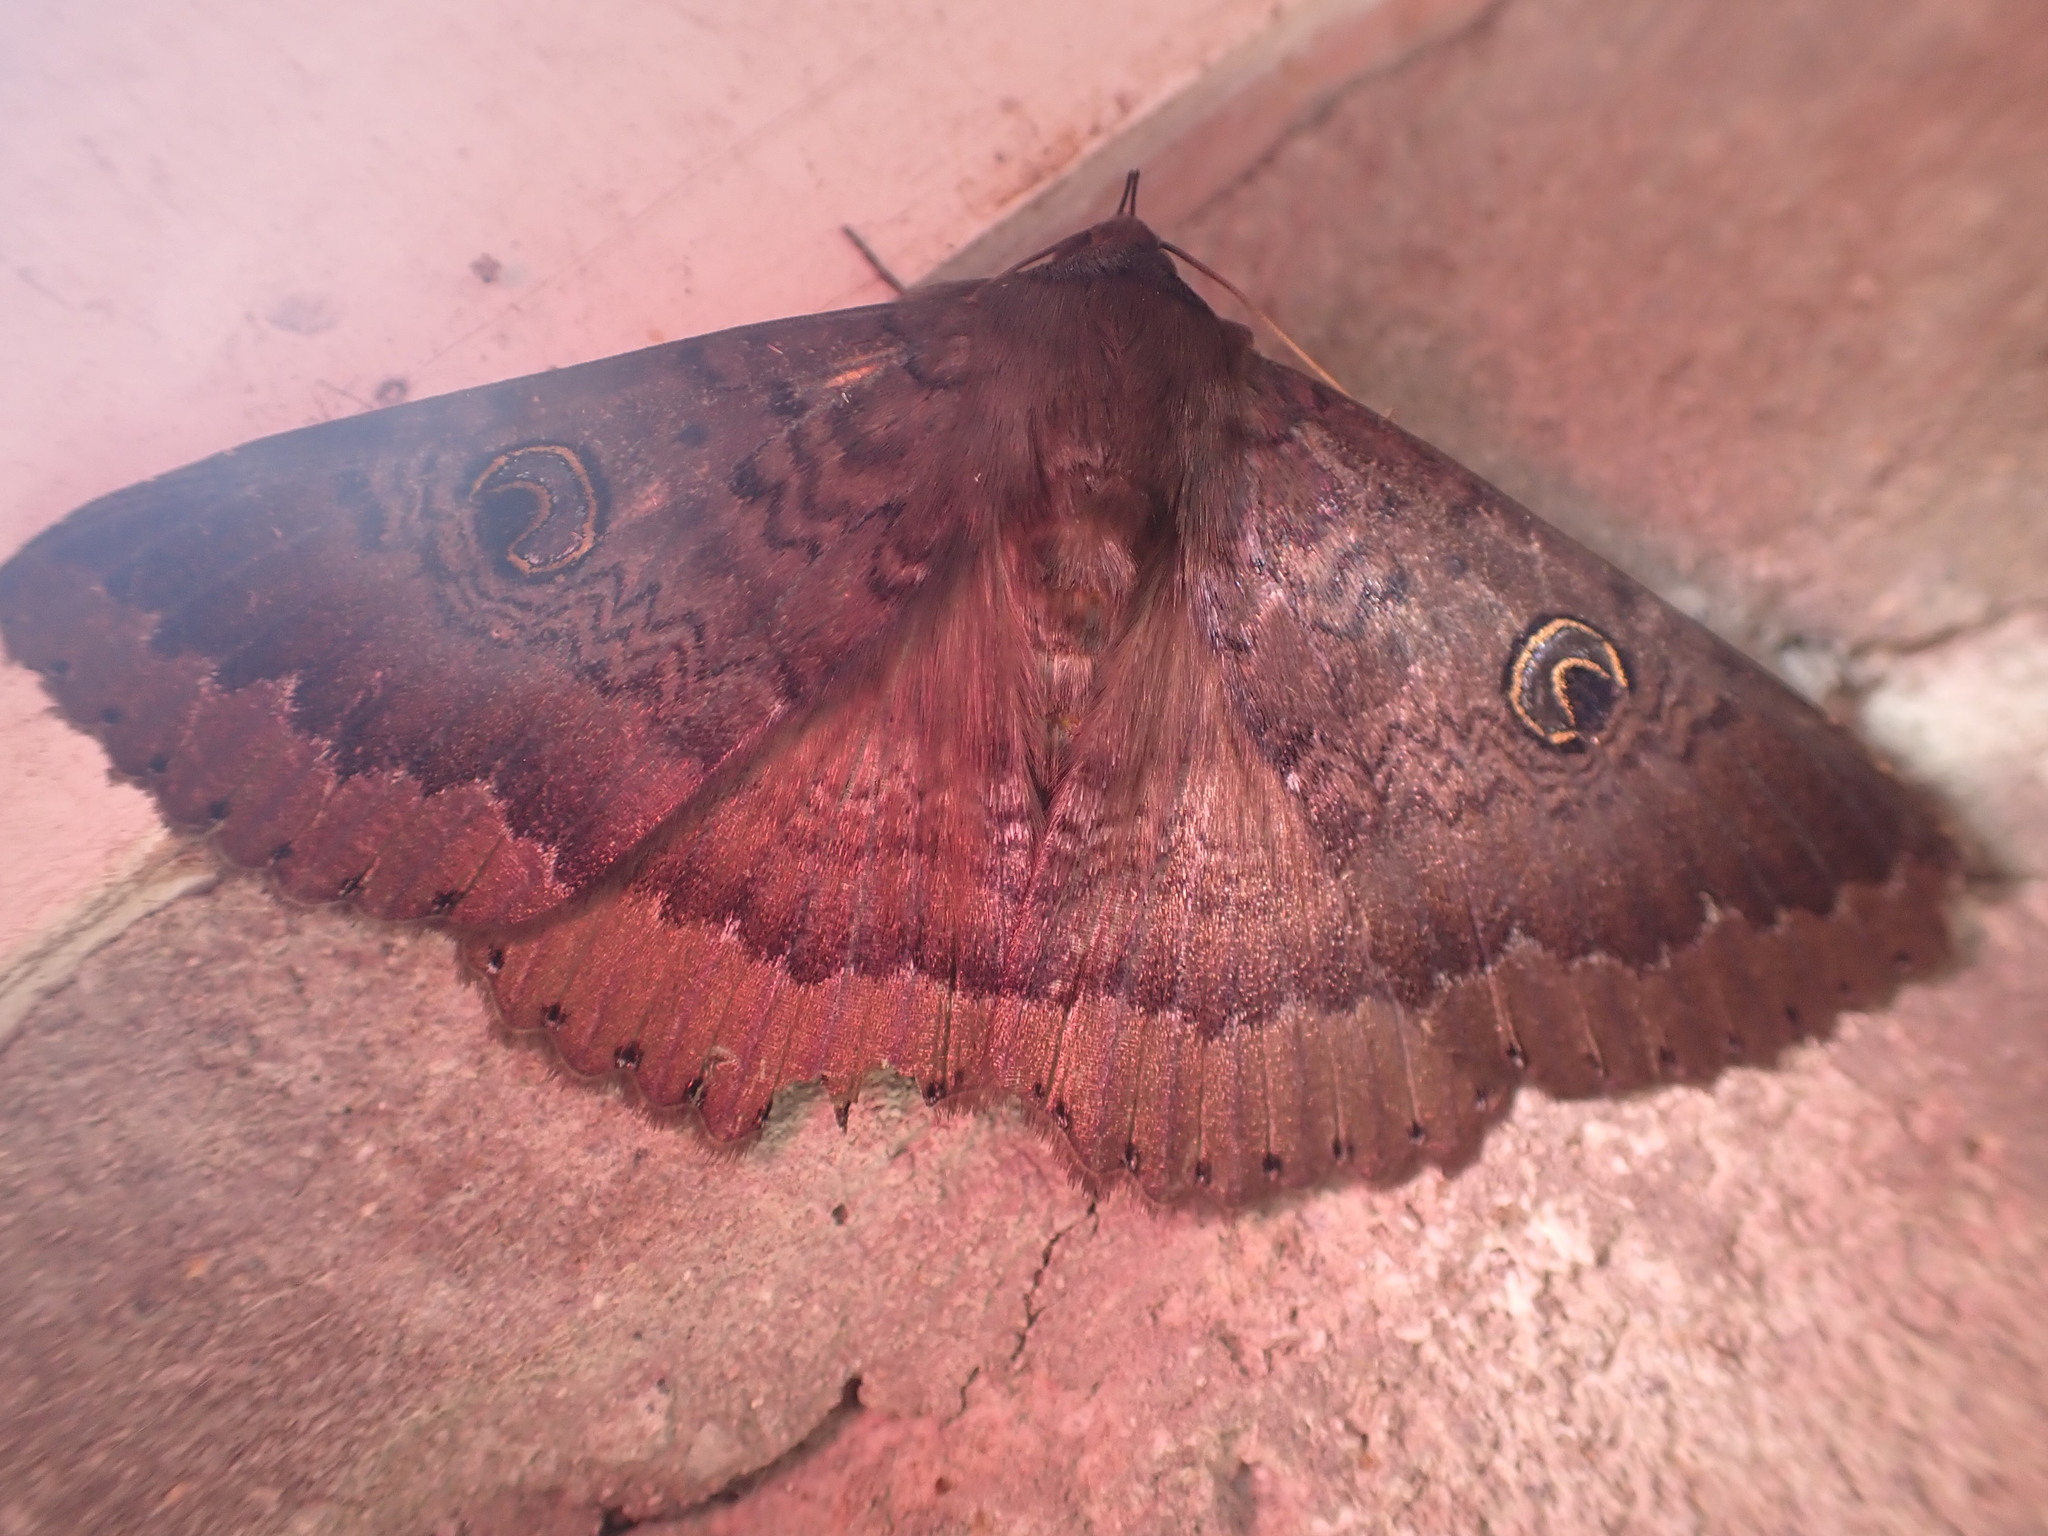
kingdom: Animalia
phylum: Arthropoda
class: Insecta
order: Lepidoptera
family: Erebidae
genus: Dasypodia
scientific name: Dasypodia cymatodes
